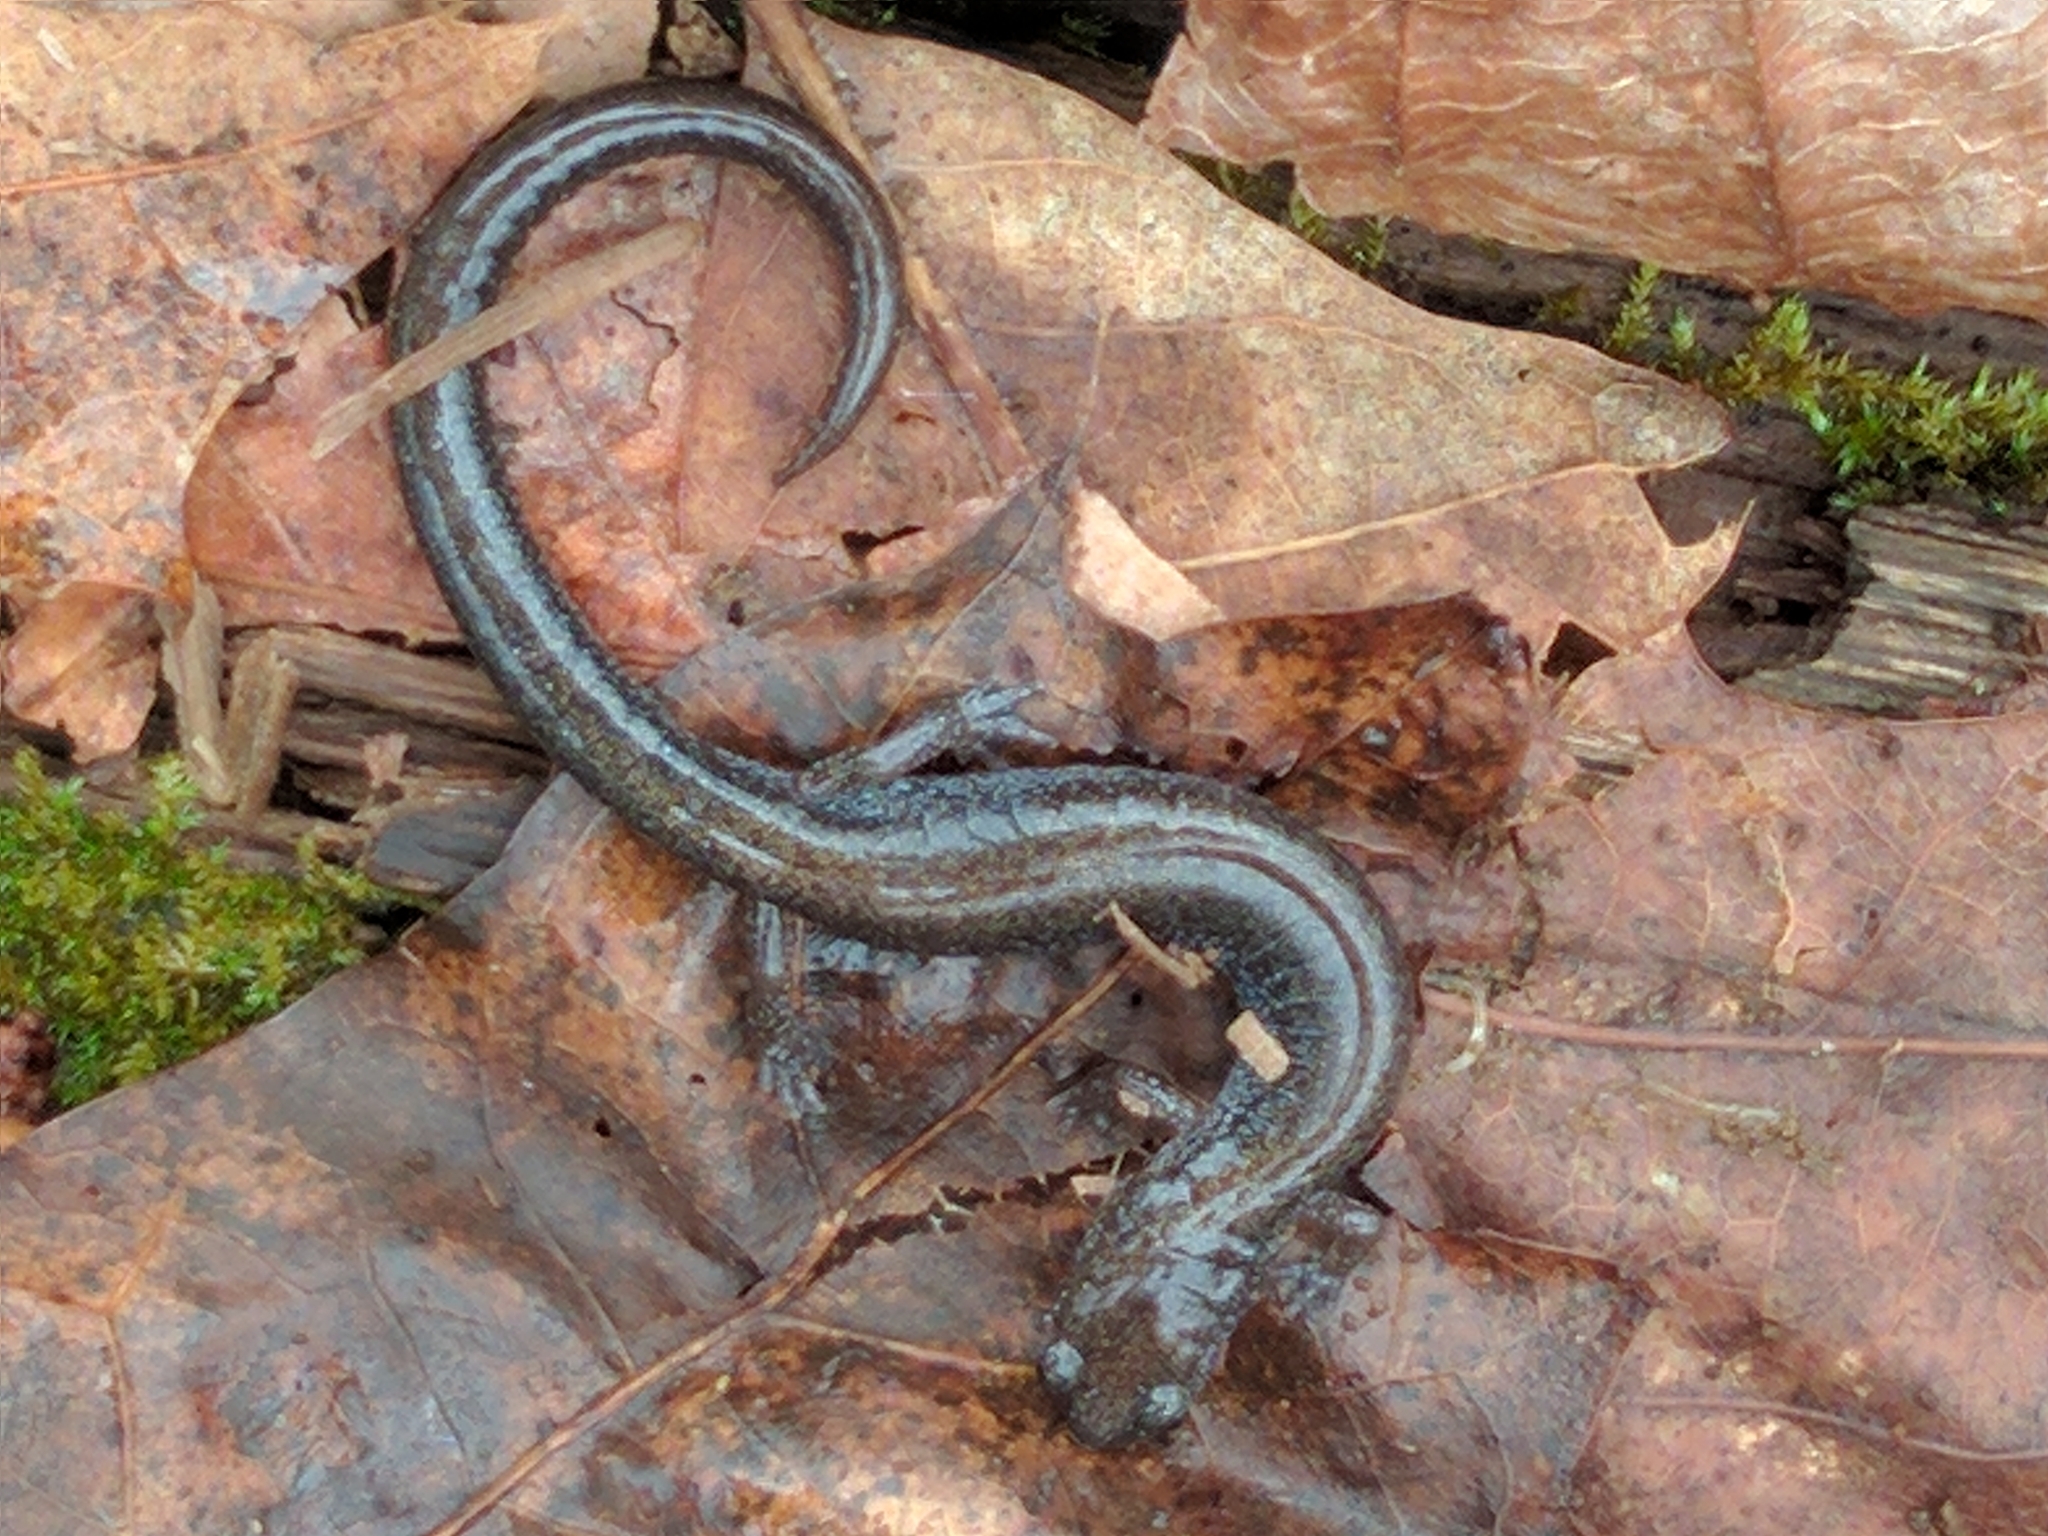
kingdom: Animalia
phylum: Chordata
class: Amphibia
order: Caudata
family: Plethodontidae
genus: Plethodon
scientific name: Plethodon cinereus
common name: Redback salamander
